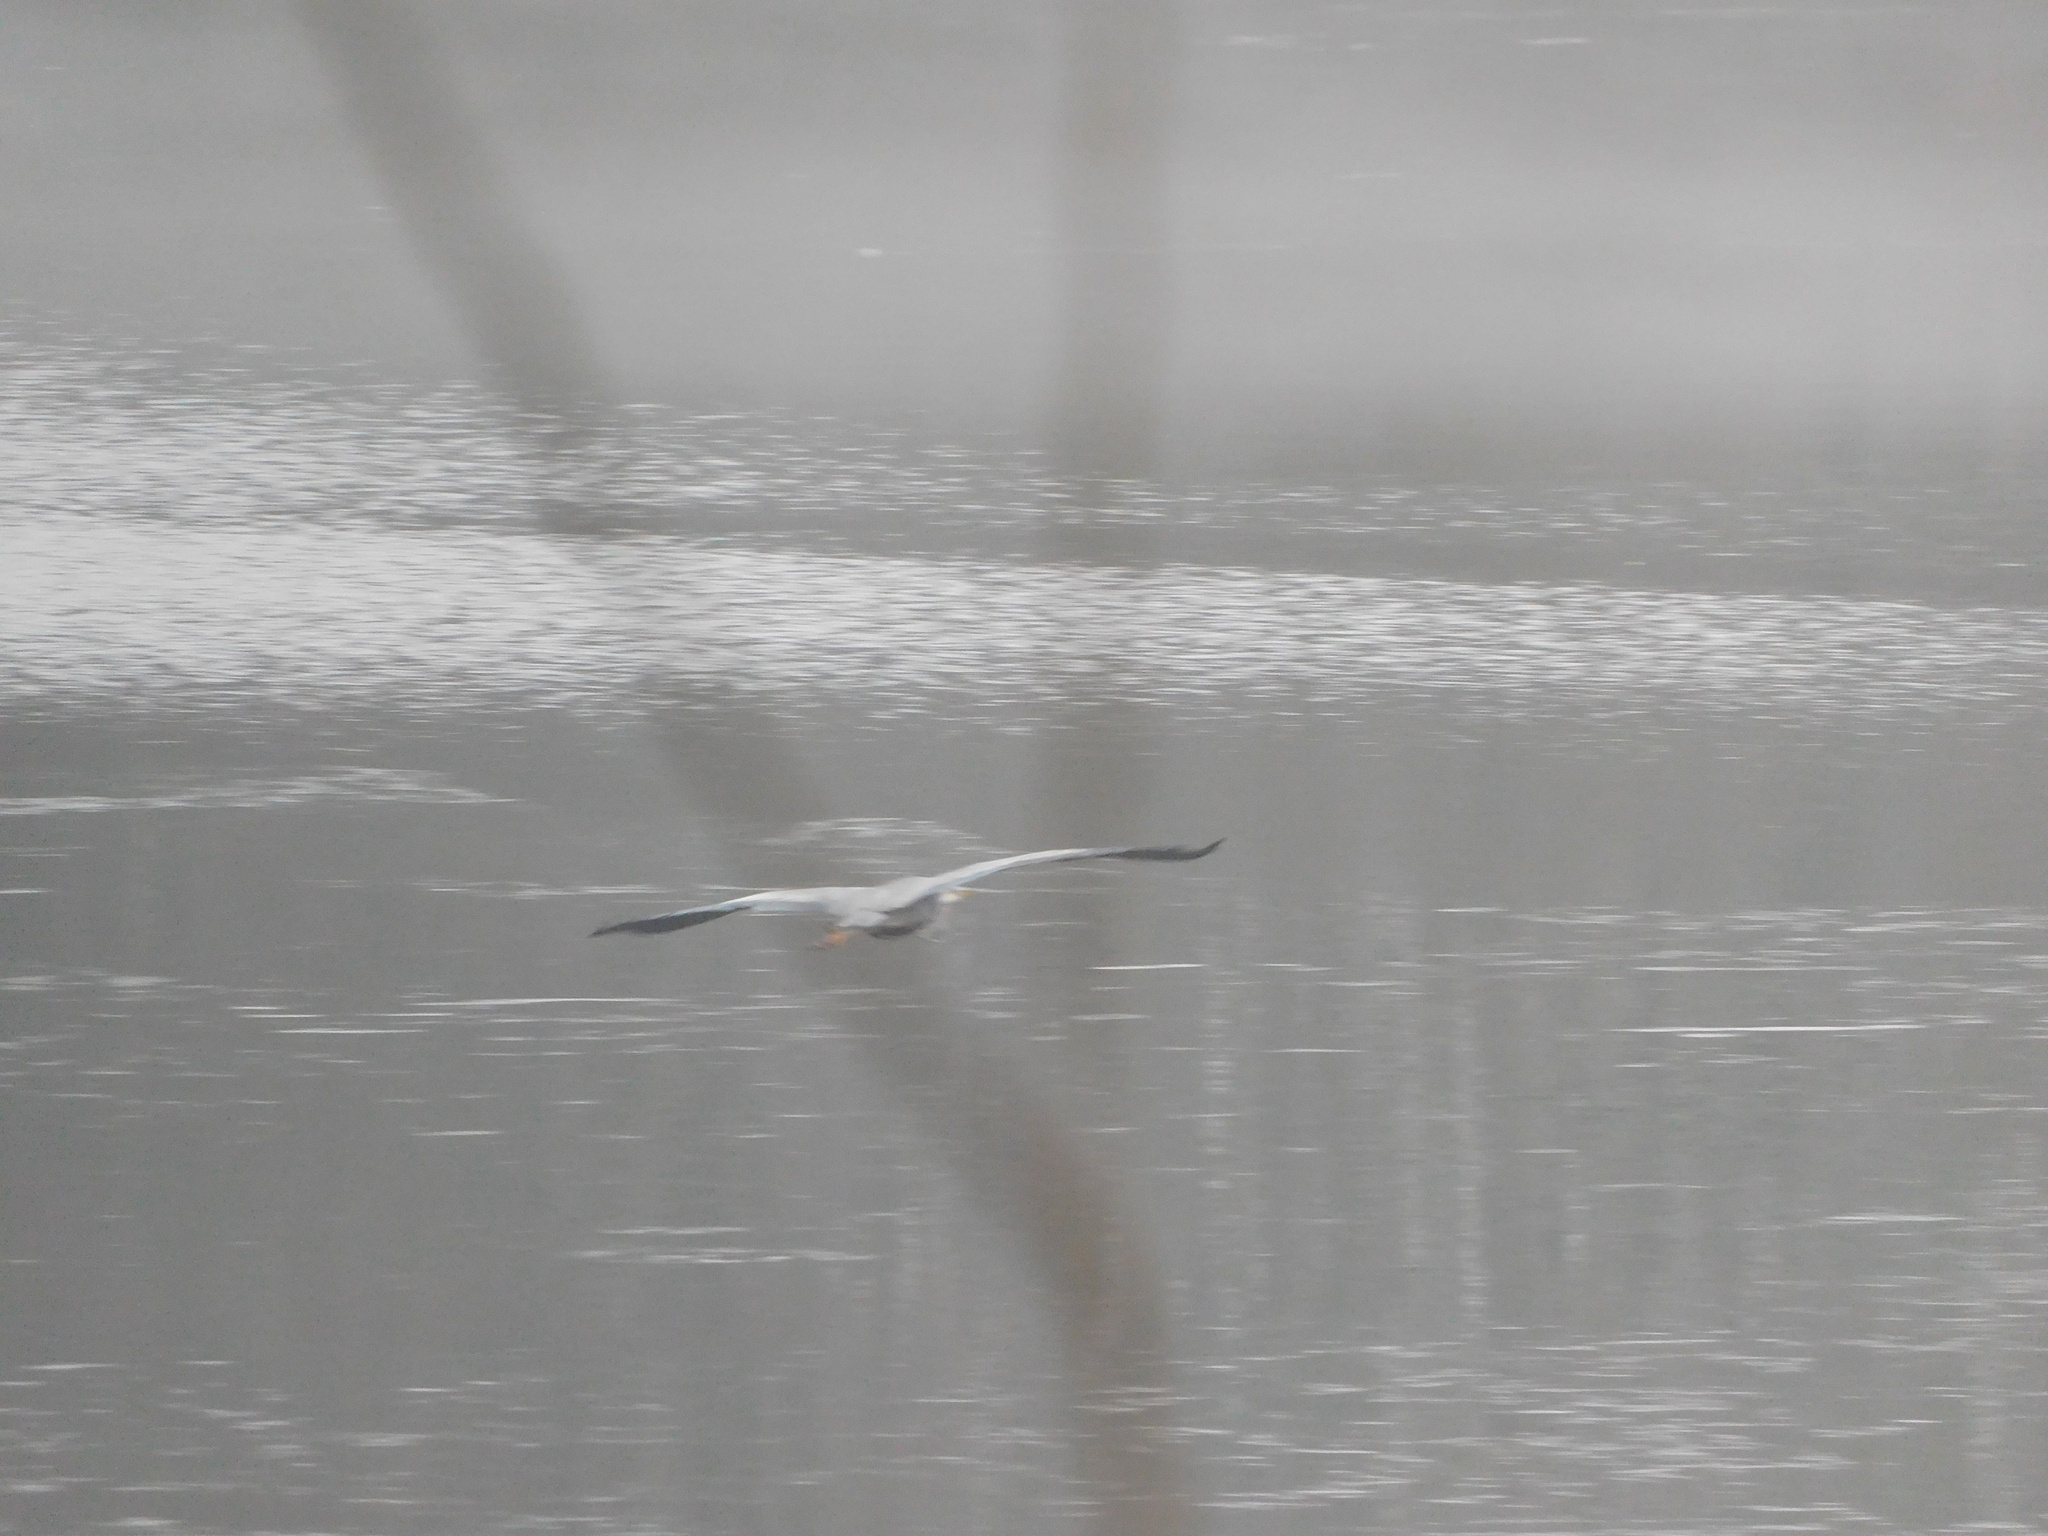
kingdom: Animalia
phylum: Chordata
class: Aves
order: Pelecaniformes
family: Ardeidae
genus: Ardea
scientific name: Ardea herodias
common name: Great blue heron
